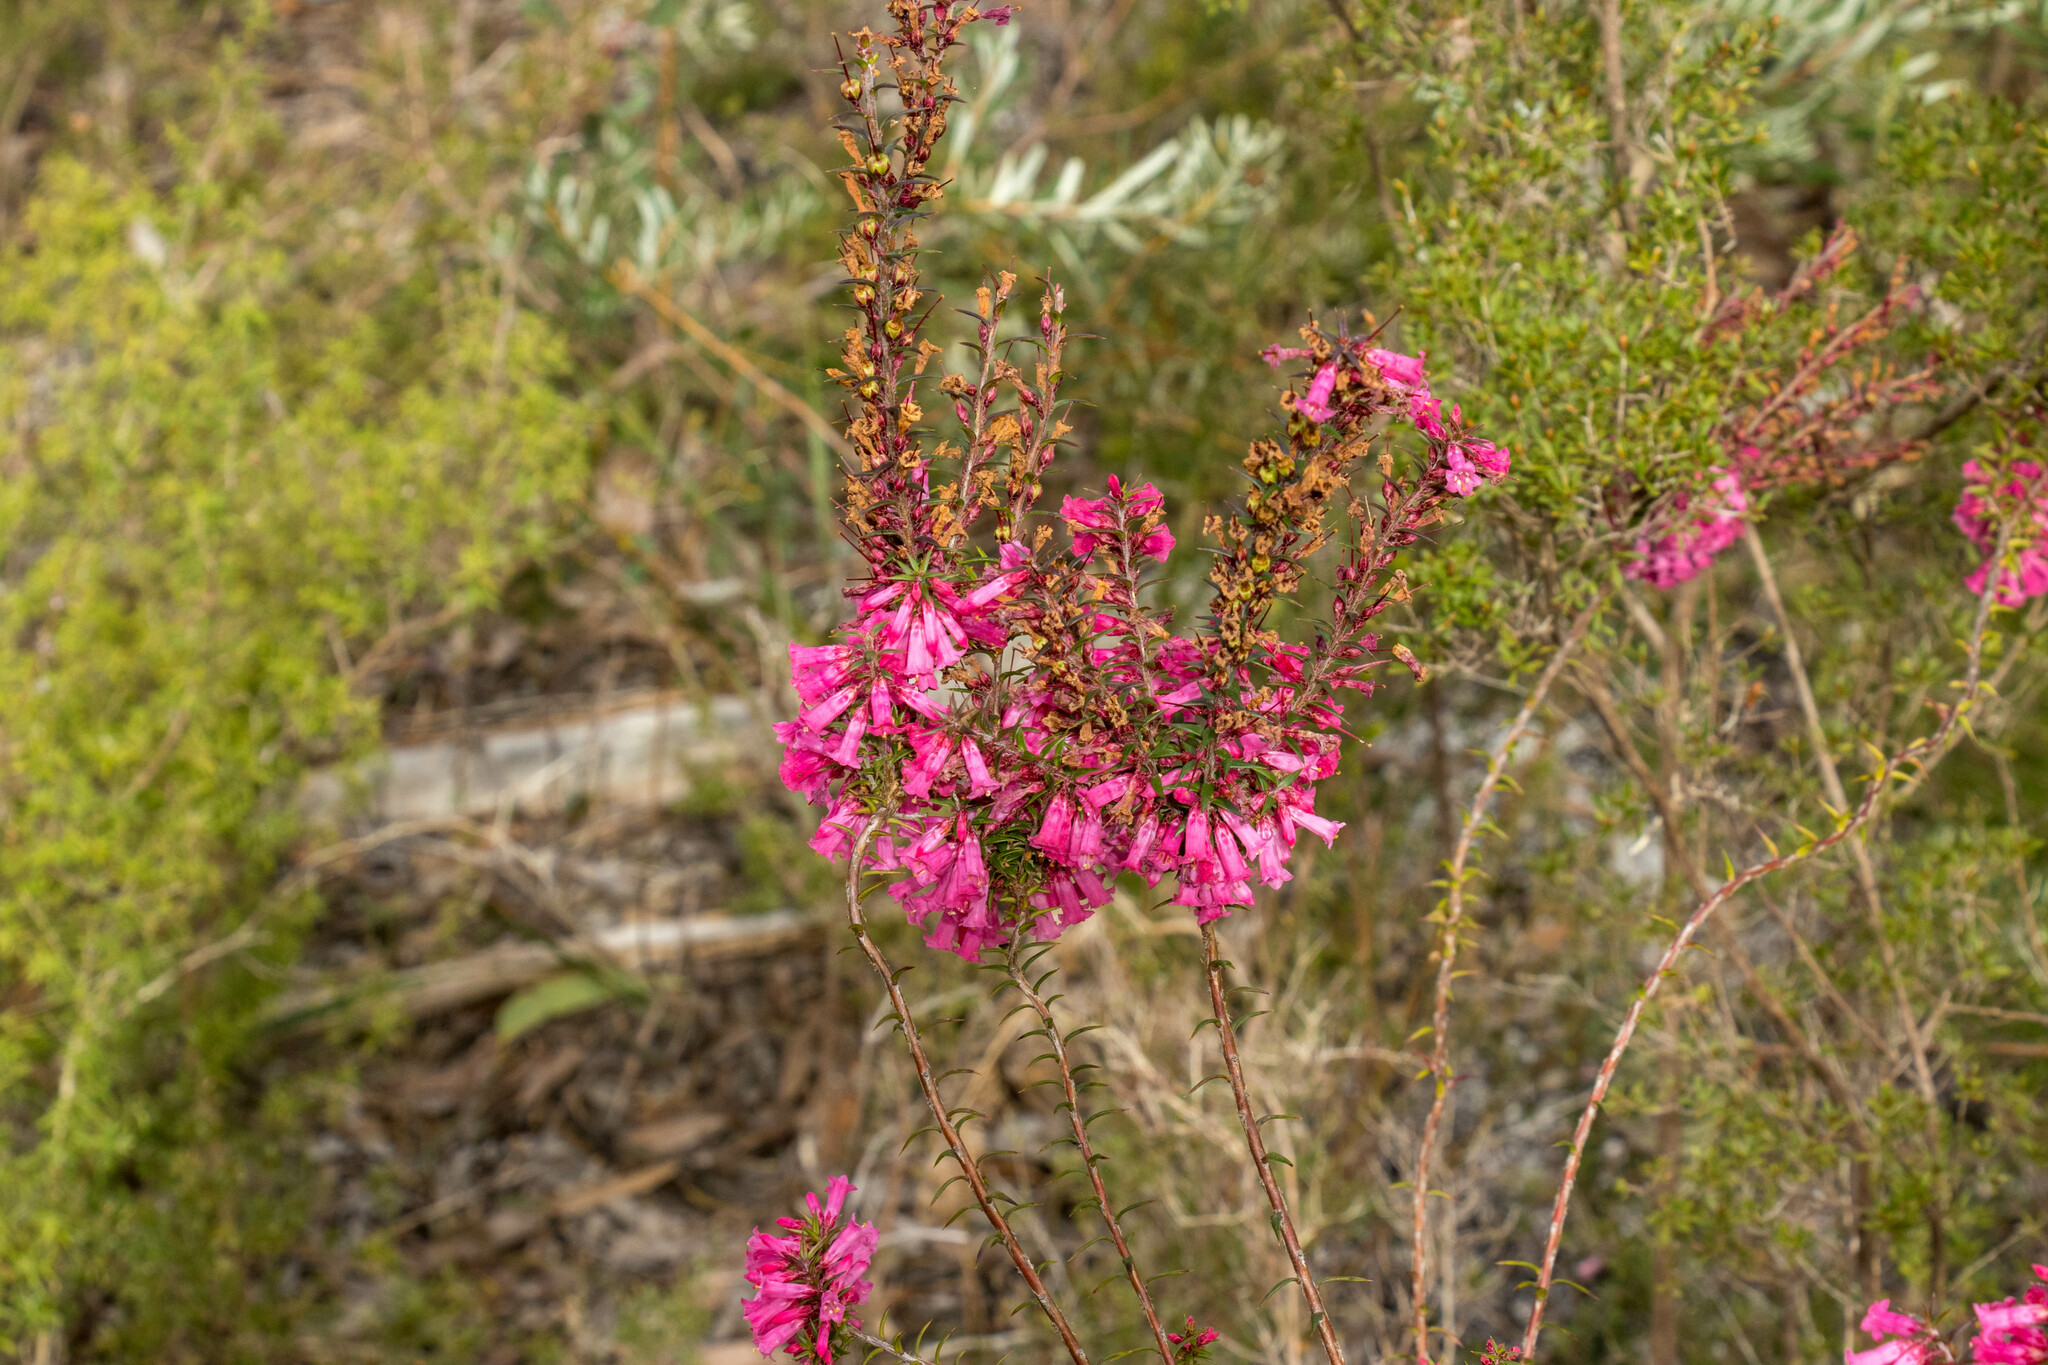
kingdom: Plantae
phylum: Tracheophyta
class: Magnoliopsida
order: Ericales
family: Ericaceae
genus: Epacris
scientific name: Epacris impressa
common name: Common-heath
